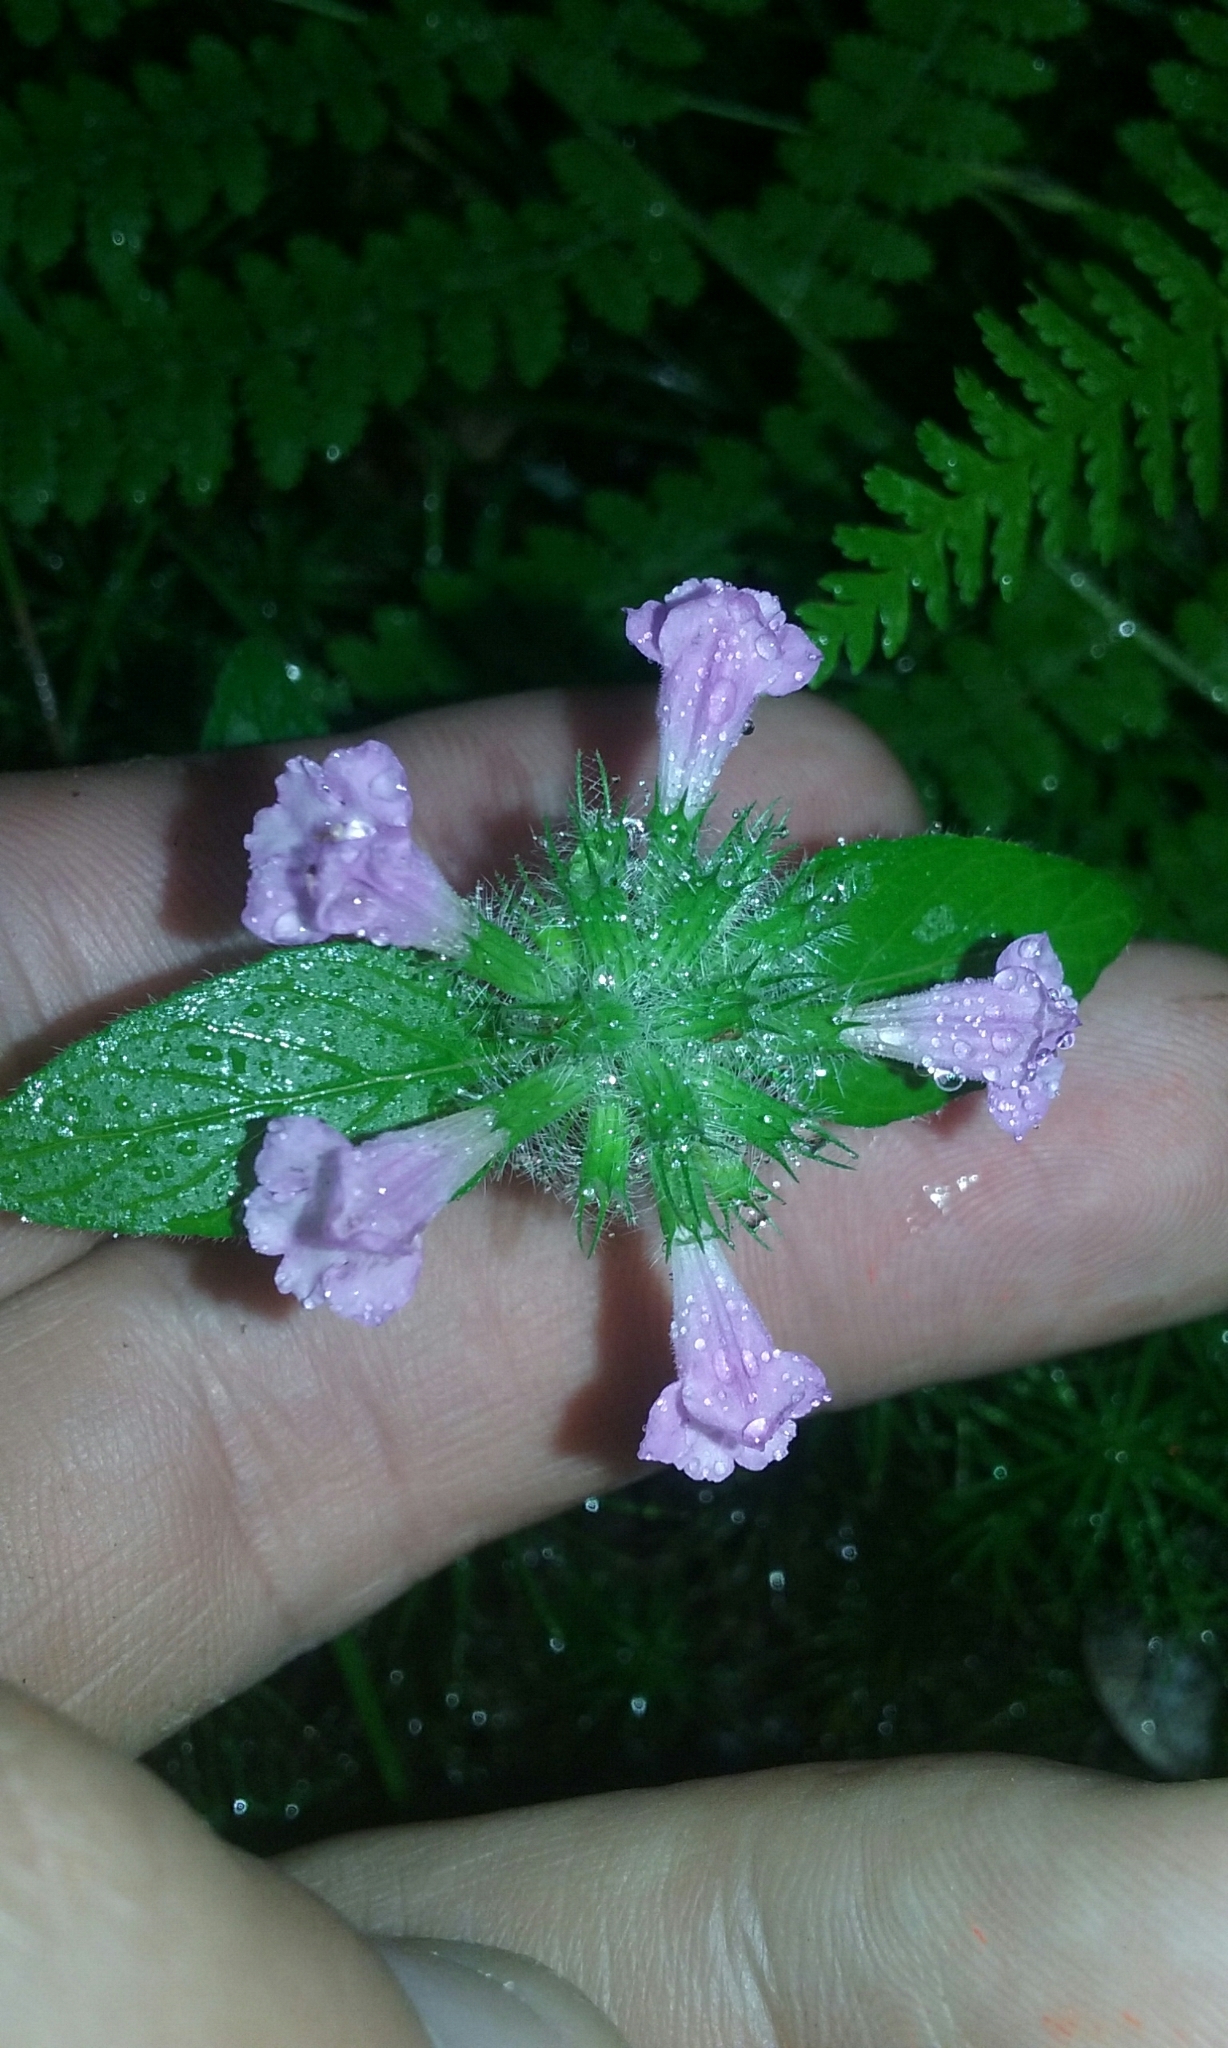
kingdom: Plantae
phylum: Tracheophyta
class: Magnoliopsida
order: Lamiales
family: Lamiaceae
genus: Clinopodium
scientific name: Clinopodium vulgare
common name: Wild basil
